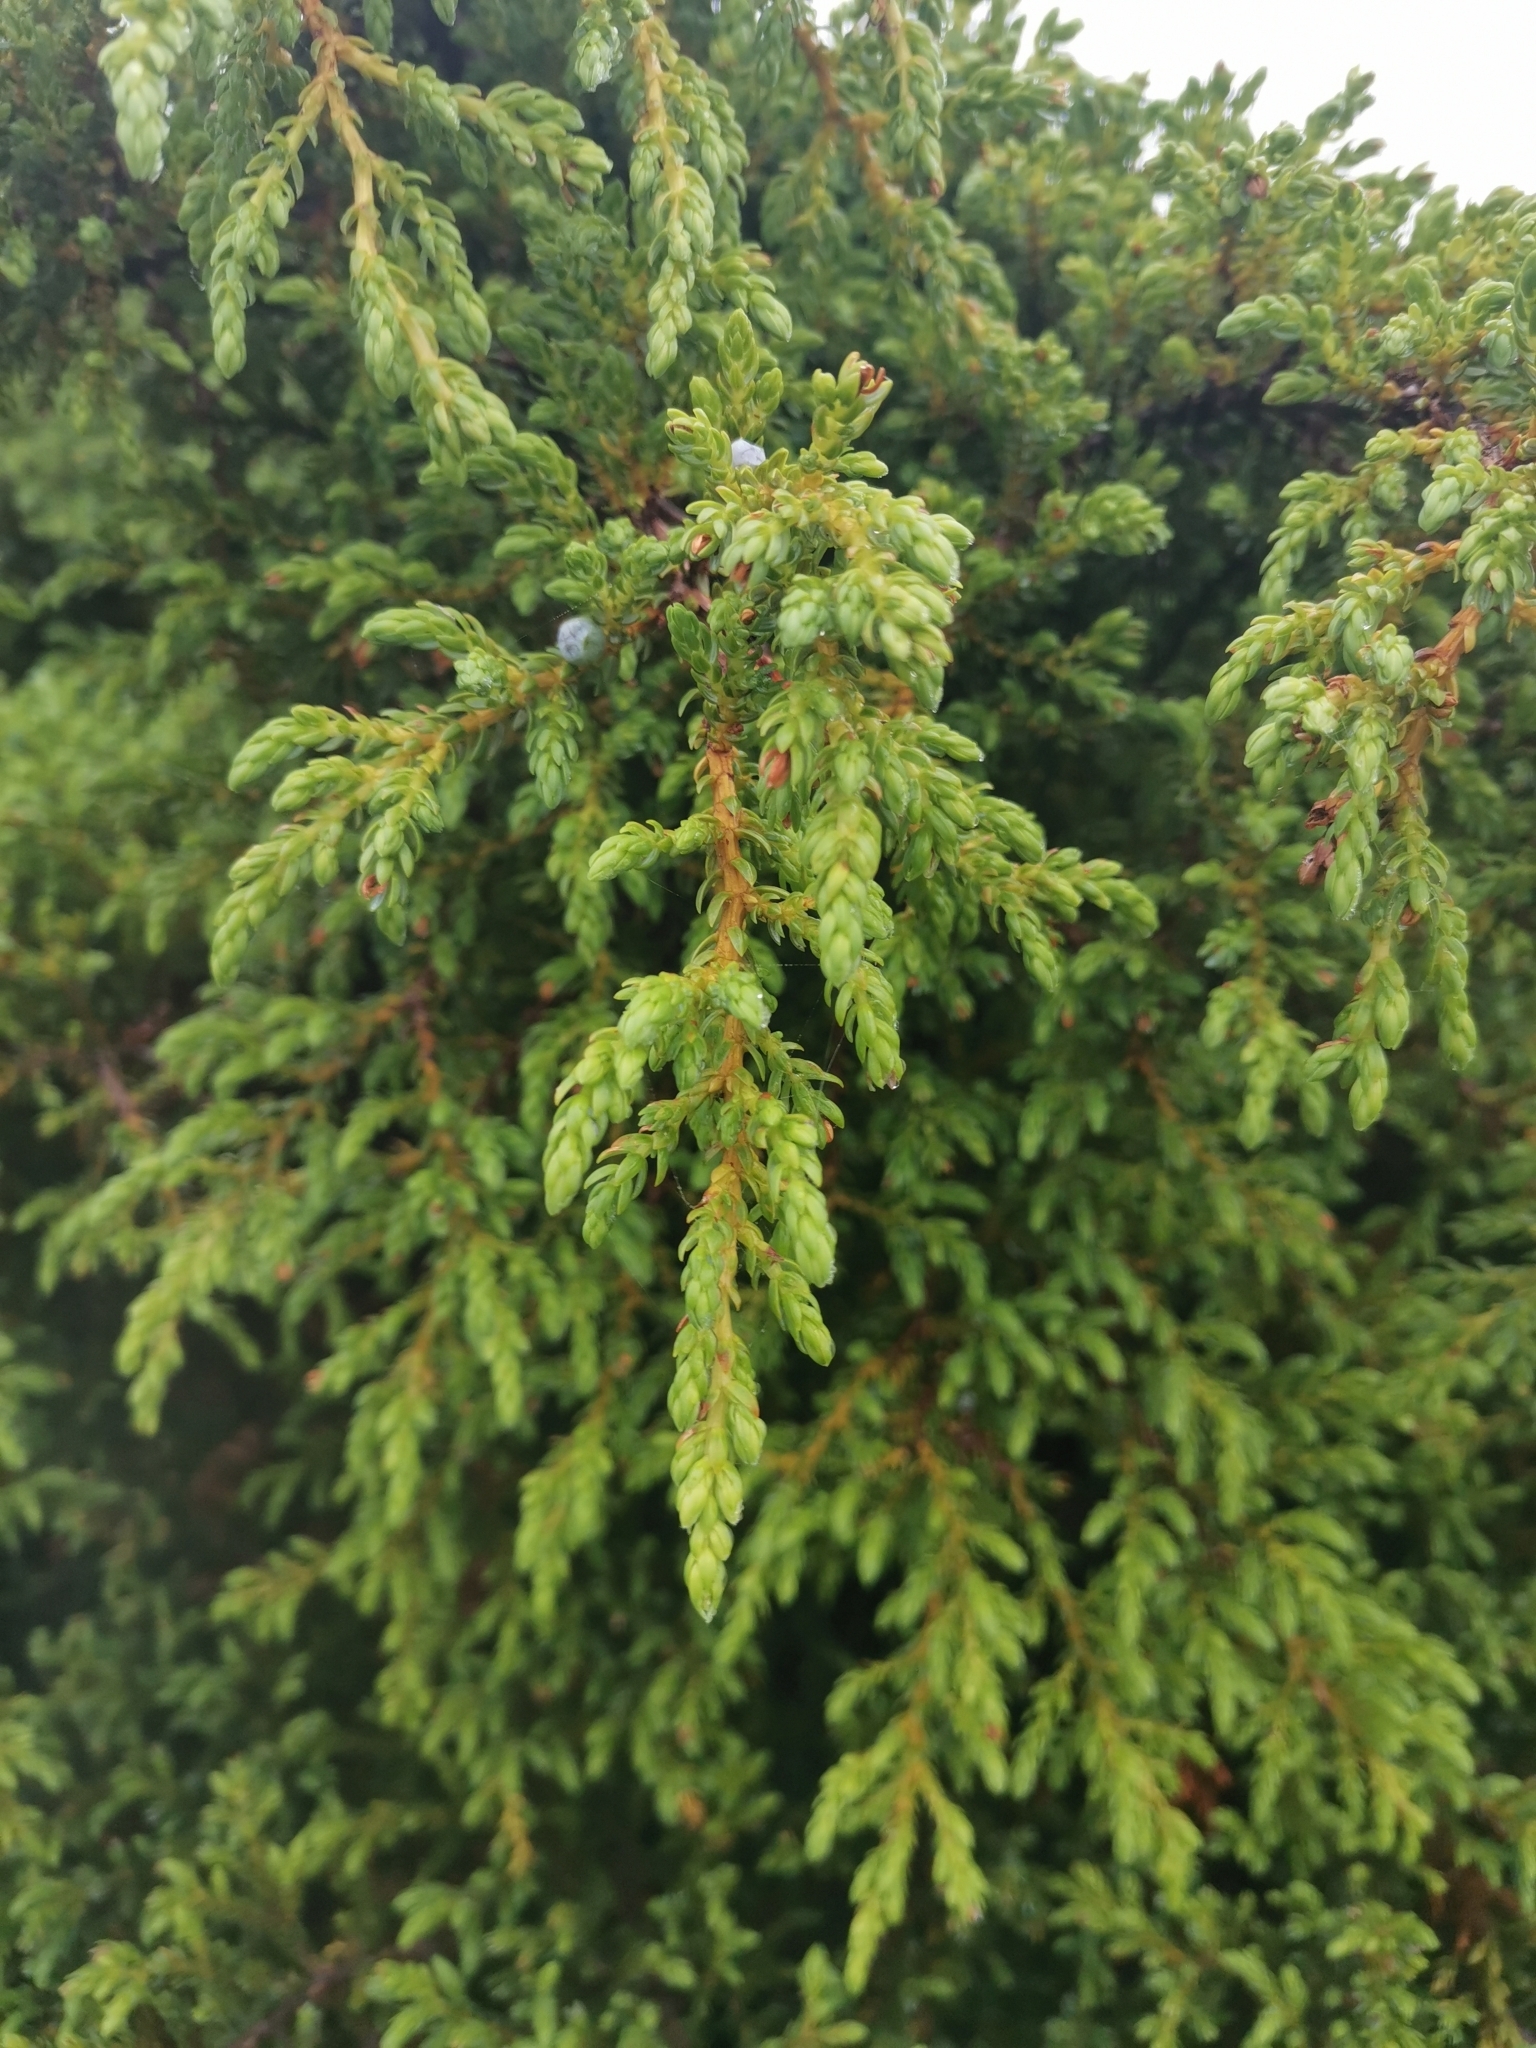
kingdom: Plantae
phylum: Tracheophyta
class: Pinopsida
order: Pinales
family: Cupressaceae
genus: Juniperus
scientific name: Juniperus brevifolia
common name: Azores juniper
